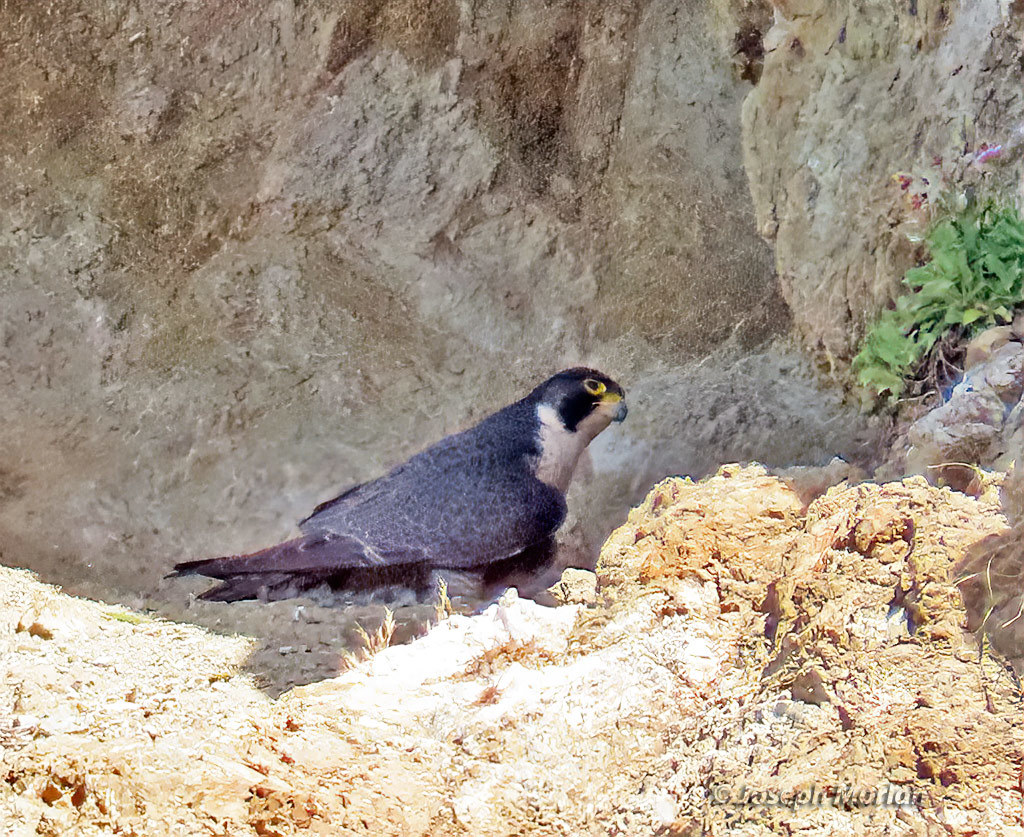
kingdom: Animalia
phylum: Chordata
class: Aves
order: Falconiformes
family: Falconidae
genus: Falco
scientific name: Falco peregrinus
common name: Peregrine falcon
